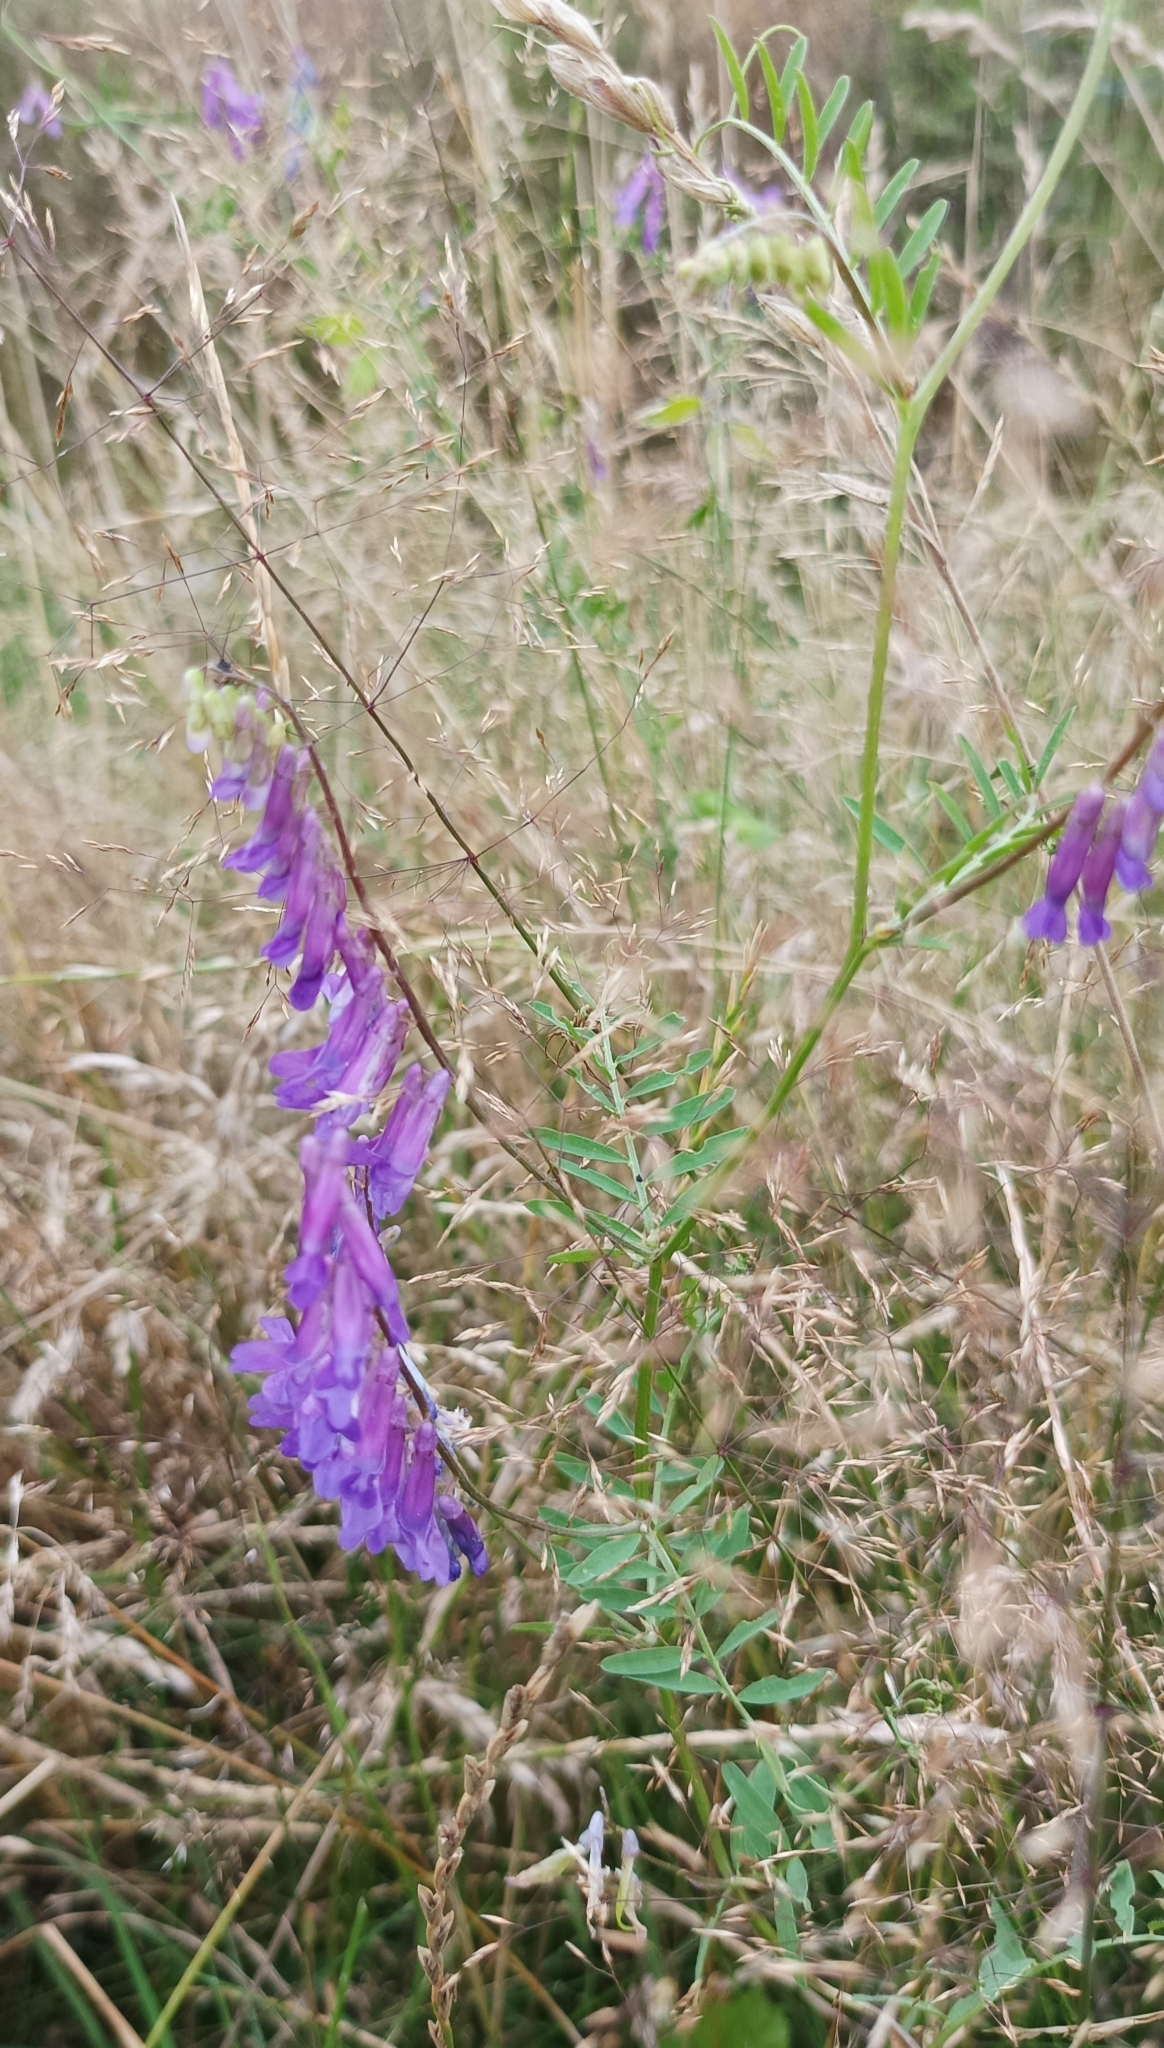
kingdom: Plantae
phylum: Tracheophyta
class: Magnoliopsida
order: Fabales
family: Fabaceae
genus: Vicia
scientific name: Vicia villosa
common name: Fodder vetch
